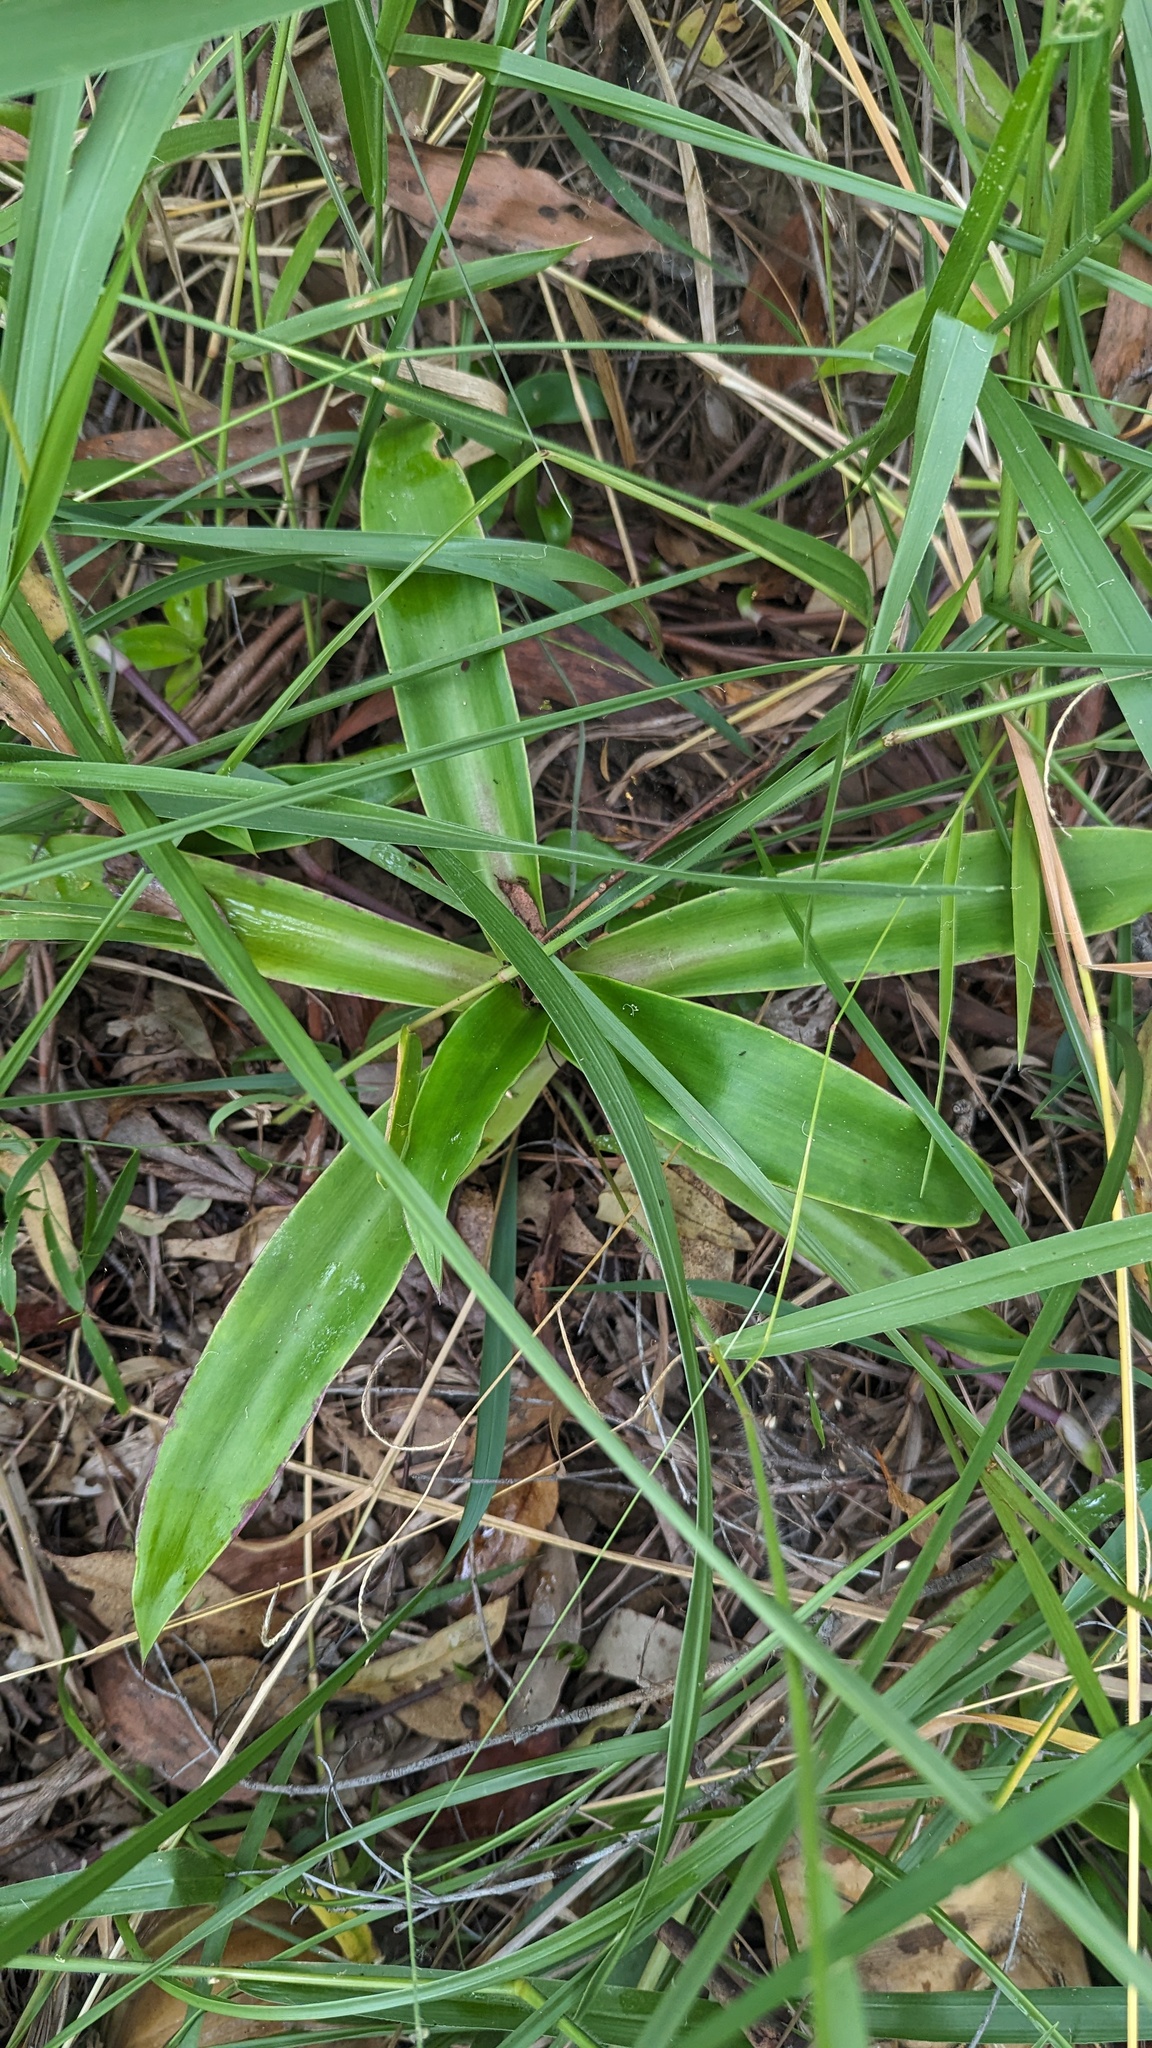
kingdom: Plantae
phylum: Tracheophyta
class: Liliopsida
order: Commelinales
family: Commelinaceae
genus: Callisia
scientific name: Callisia fragrans
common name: Basketplant
